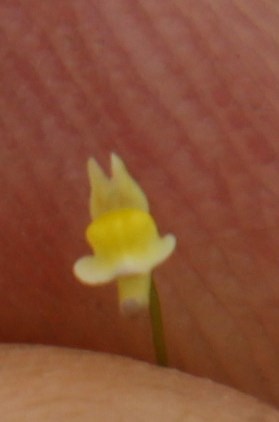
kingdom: Plantae
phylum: Tracheophyta
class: Magnoliopsida
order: Lamiales
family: Lentibulariaceae
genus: Utricularia
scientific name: Utricularia bisquamata
